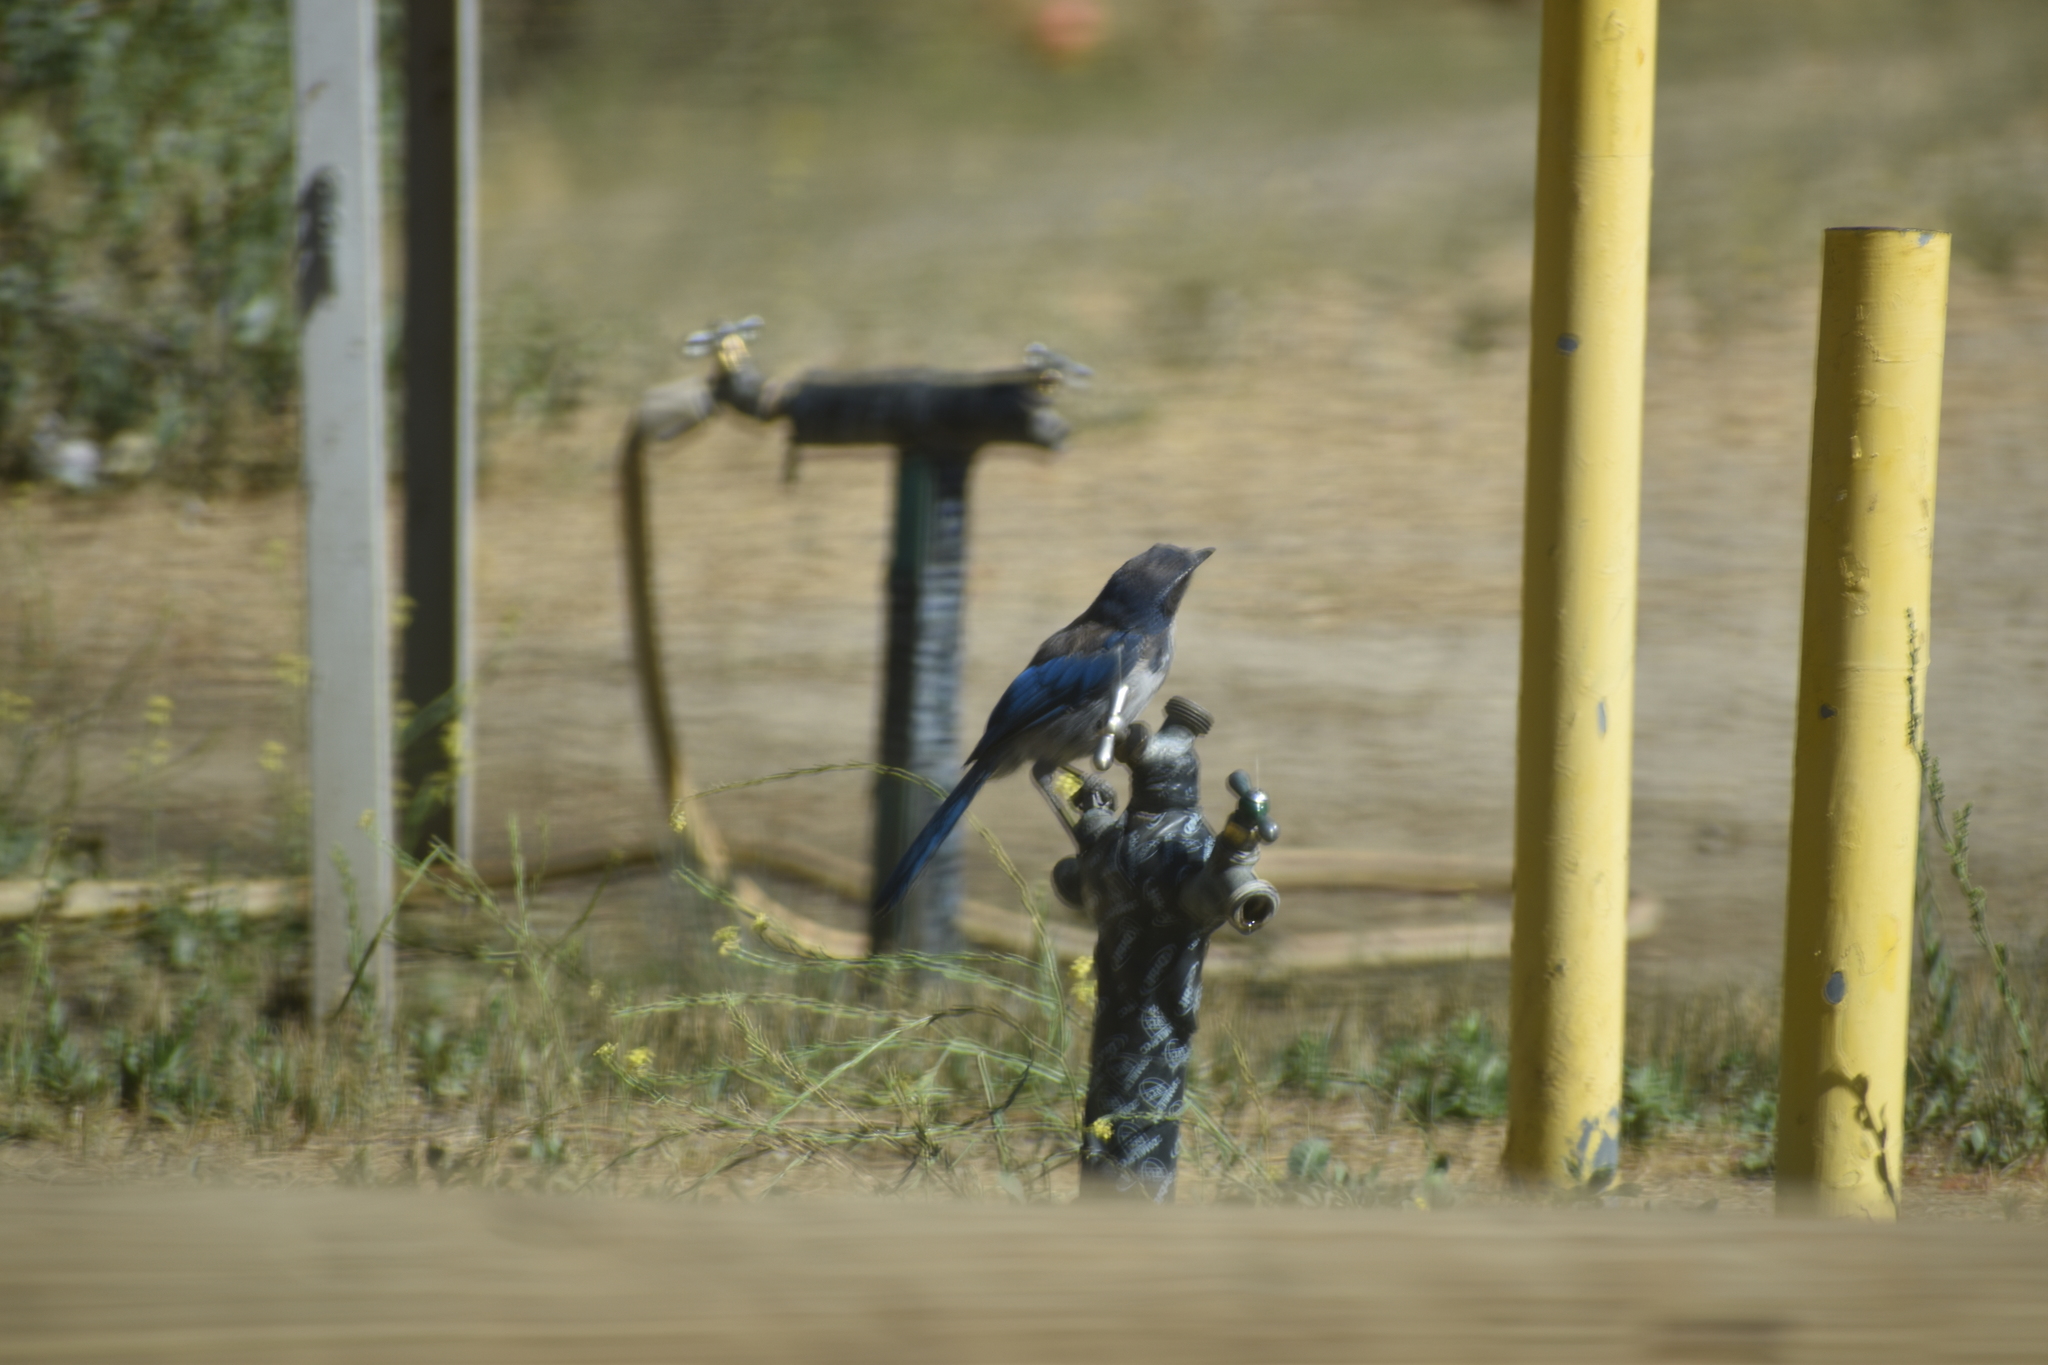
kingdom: Animalia
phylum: Chordata
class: Aves
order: Passeriformes
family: Corvidae
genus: Aphelocoma
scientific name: Aphelocoma californica
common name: California scrub-jay
